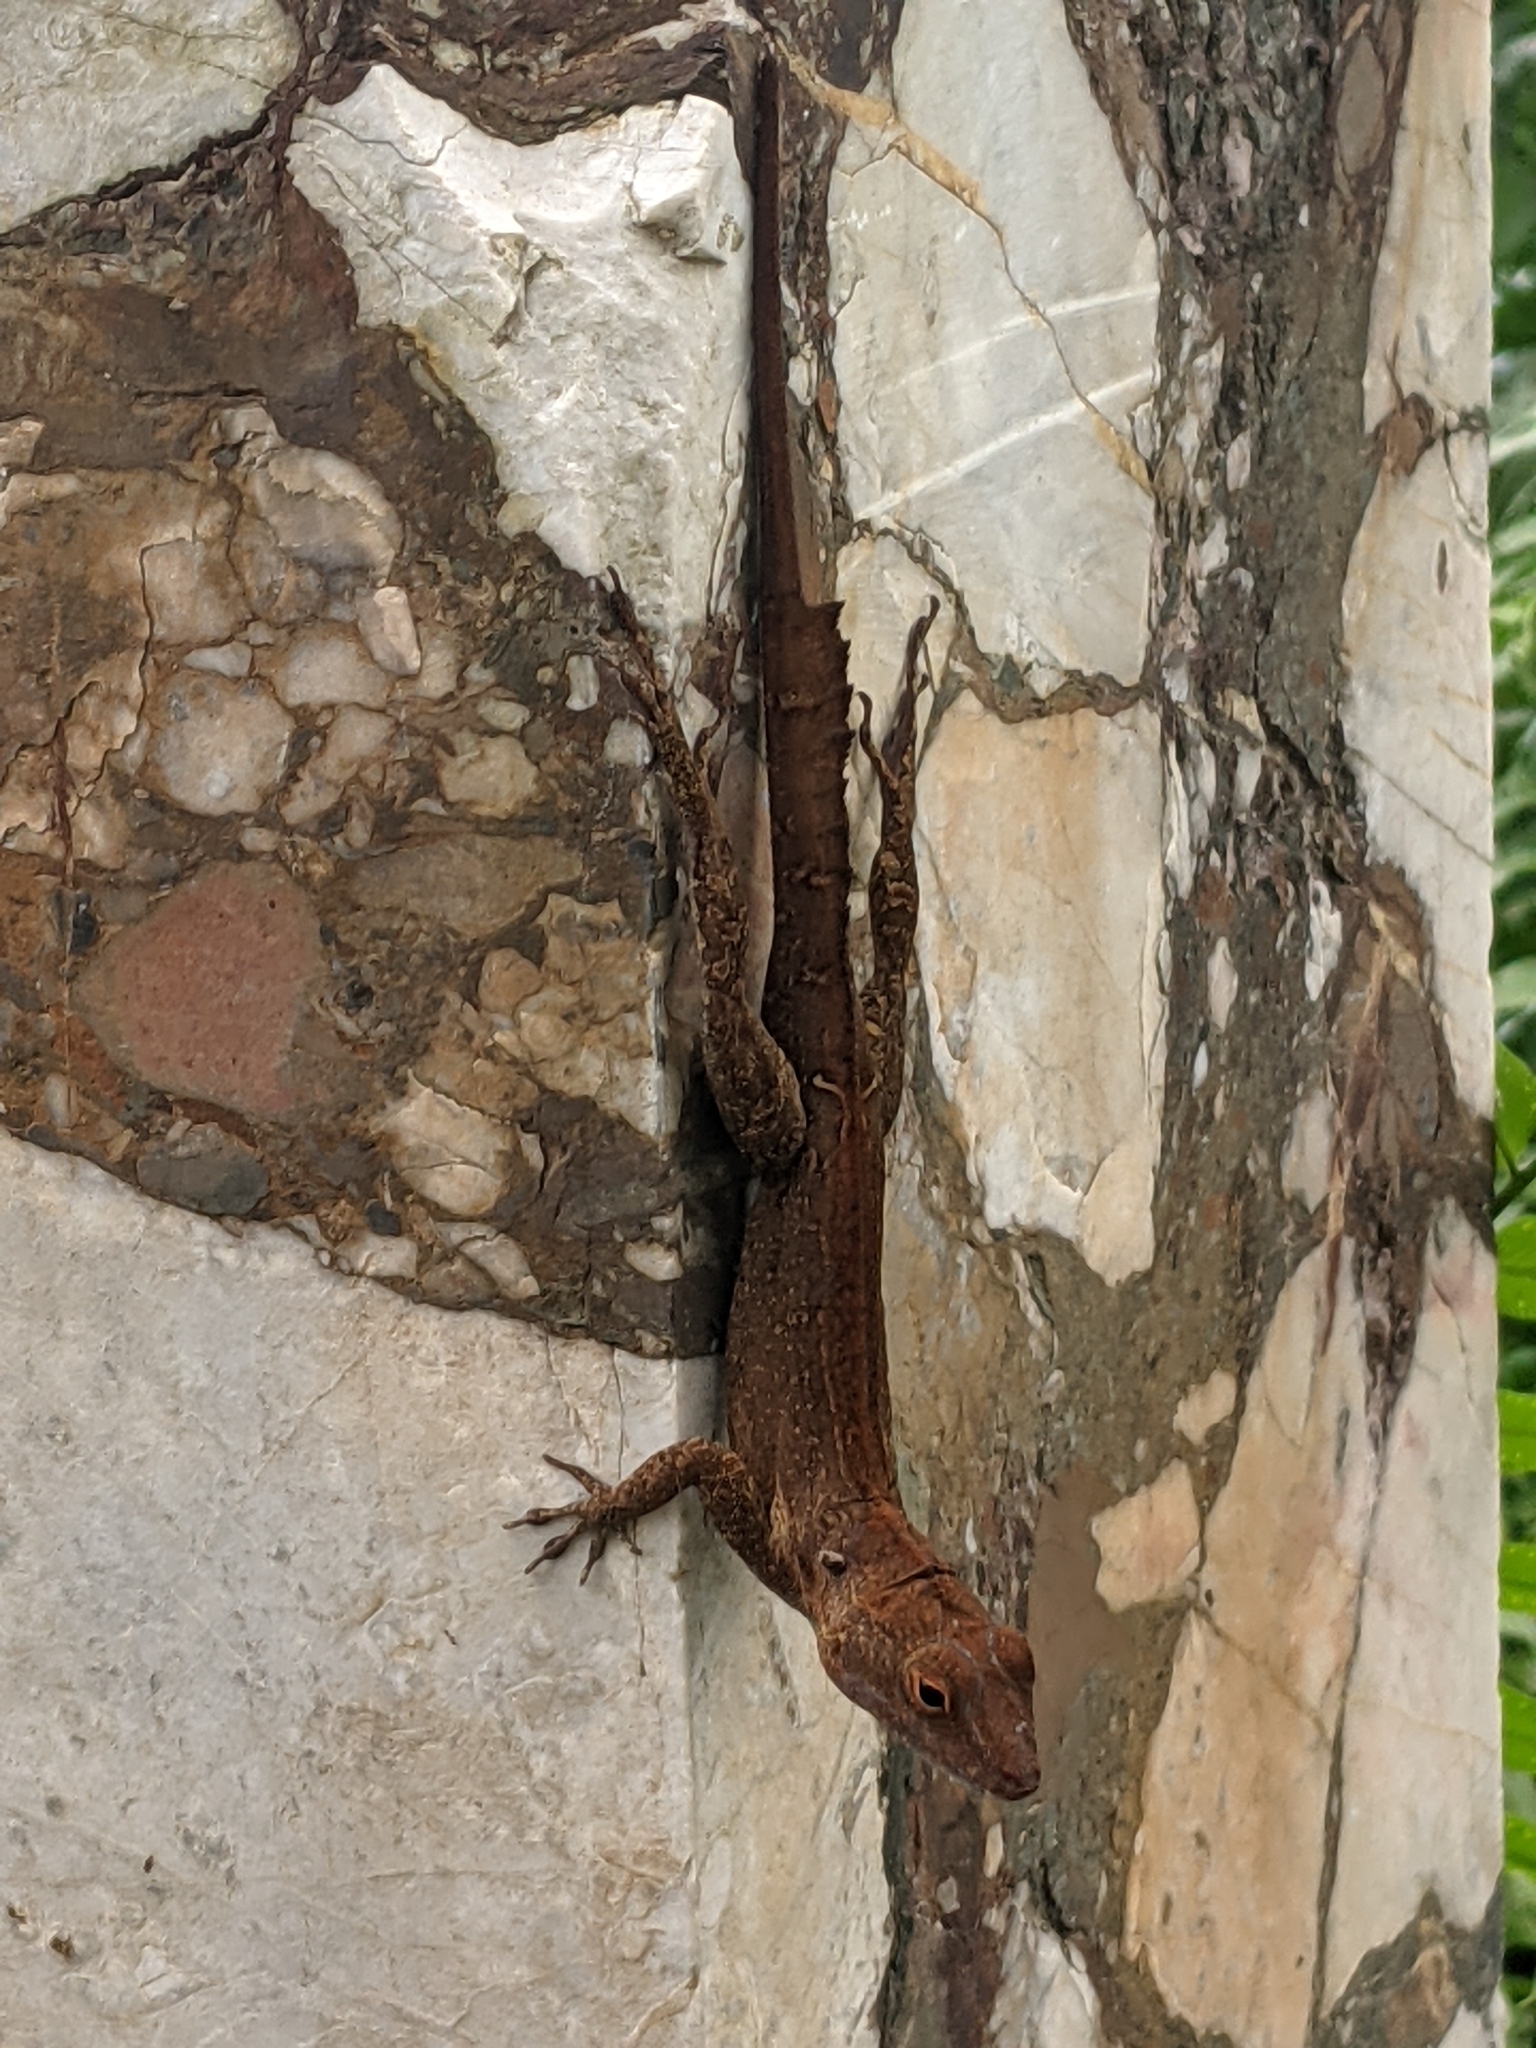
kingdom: Animalia
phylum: Chordata
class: Squamata
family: Dactyloidae
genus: Anolis
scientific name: Anolis cristatellus
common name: Crested anole
